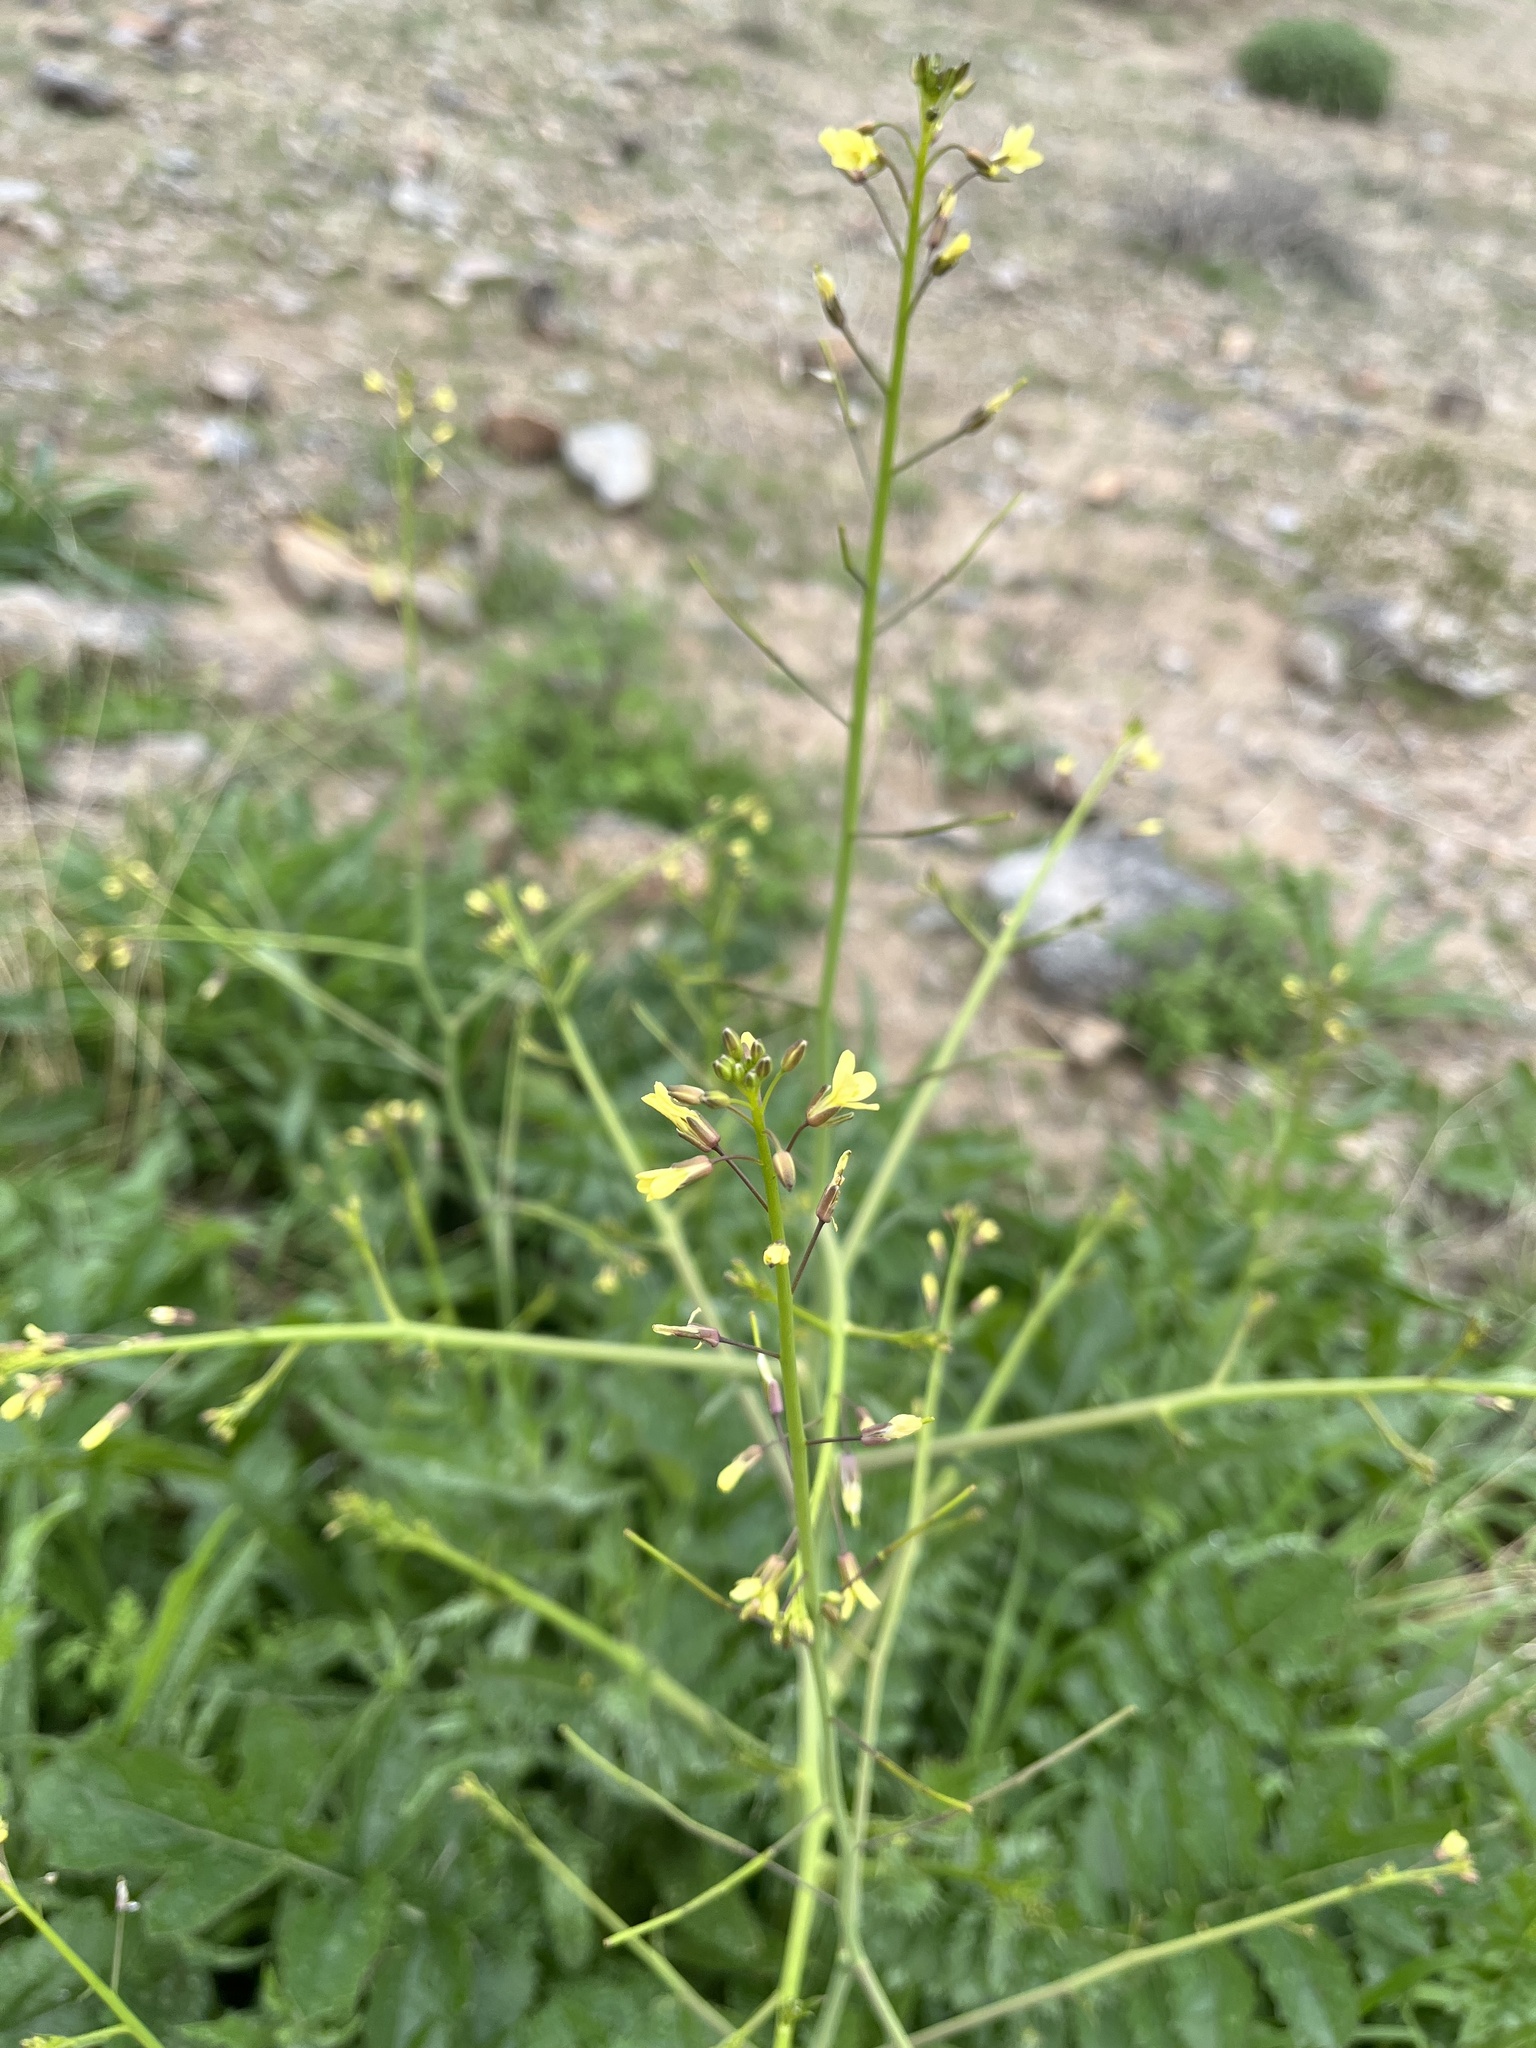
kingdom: Plantae
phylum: Tracheophyta
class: Magnoliopsida
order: Brassicales
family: Brassicaceae
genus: Brassica
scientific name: Brassica tournefortii
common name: Pale cabbage
